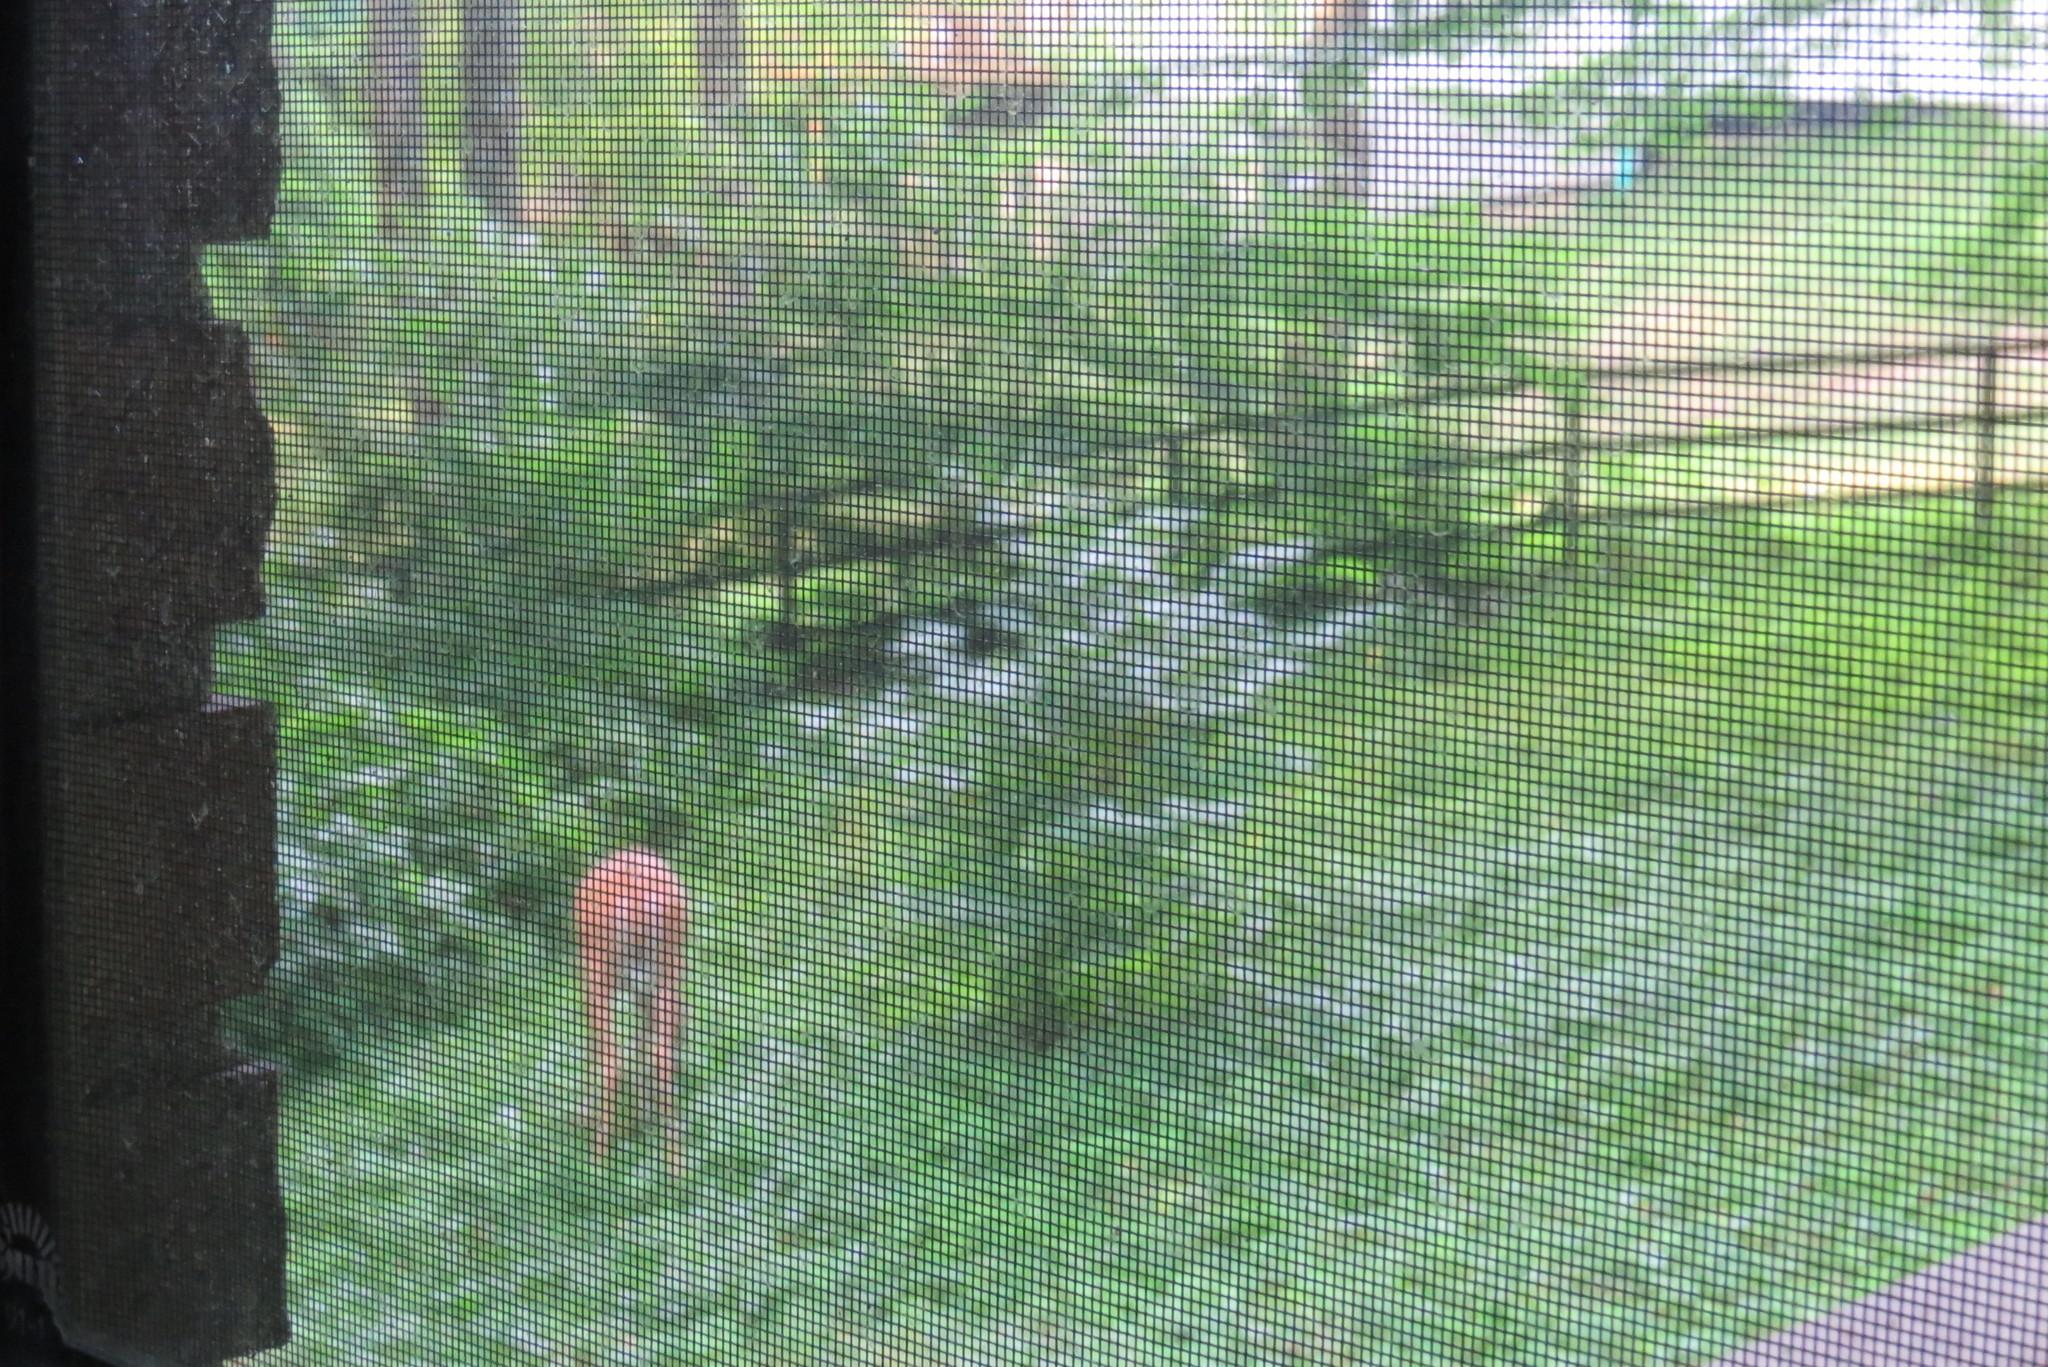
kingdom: Animalia
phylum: Chordata
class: Mammalia
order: Artiodactyla
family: Cervidae
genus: Odocoileus
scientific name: Odocoileus virginianus
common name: White-tailed deer
